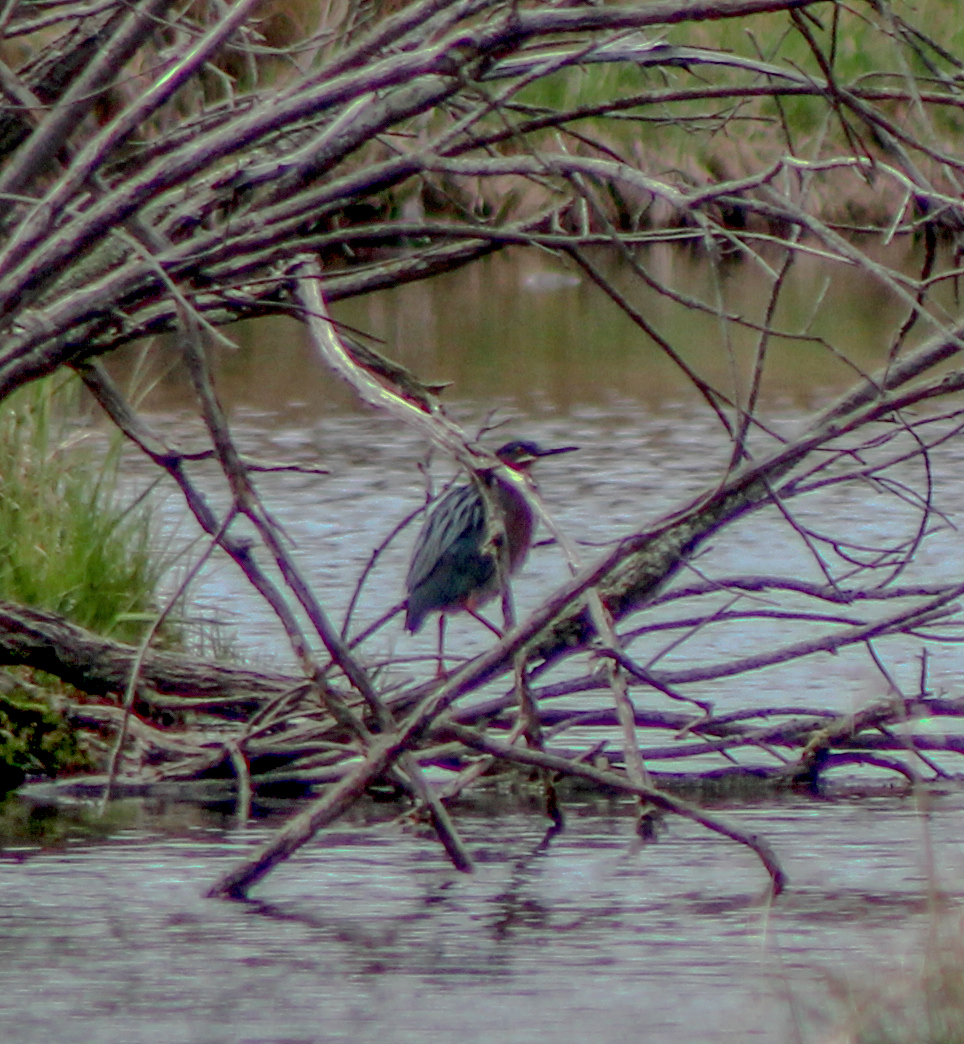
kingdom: Animalia
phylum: Chordata
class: Aves
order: Pelecaniformes
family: Ardeidae
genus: Butorides
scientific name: Butorides virescens
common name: Green heron
